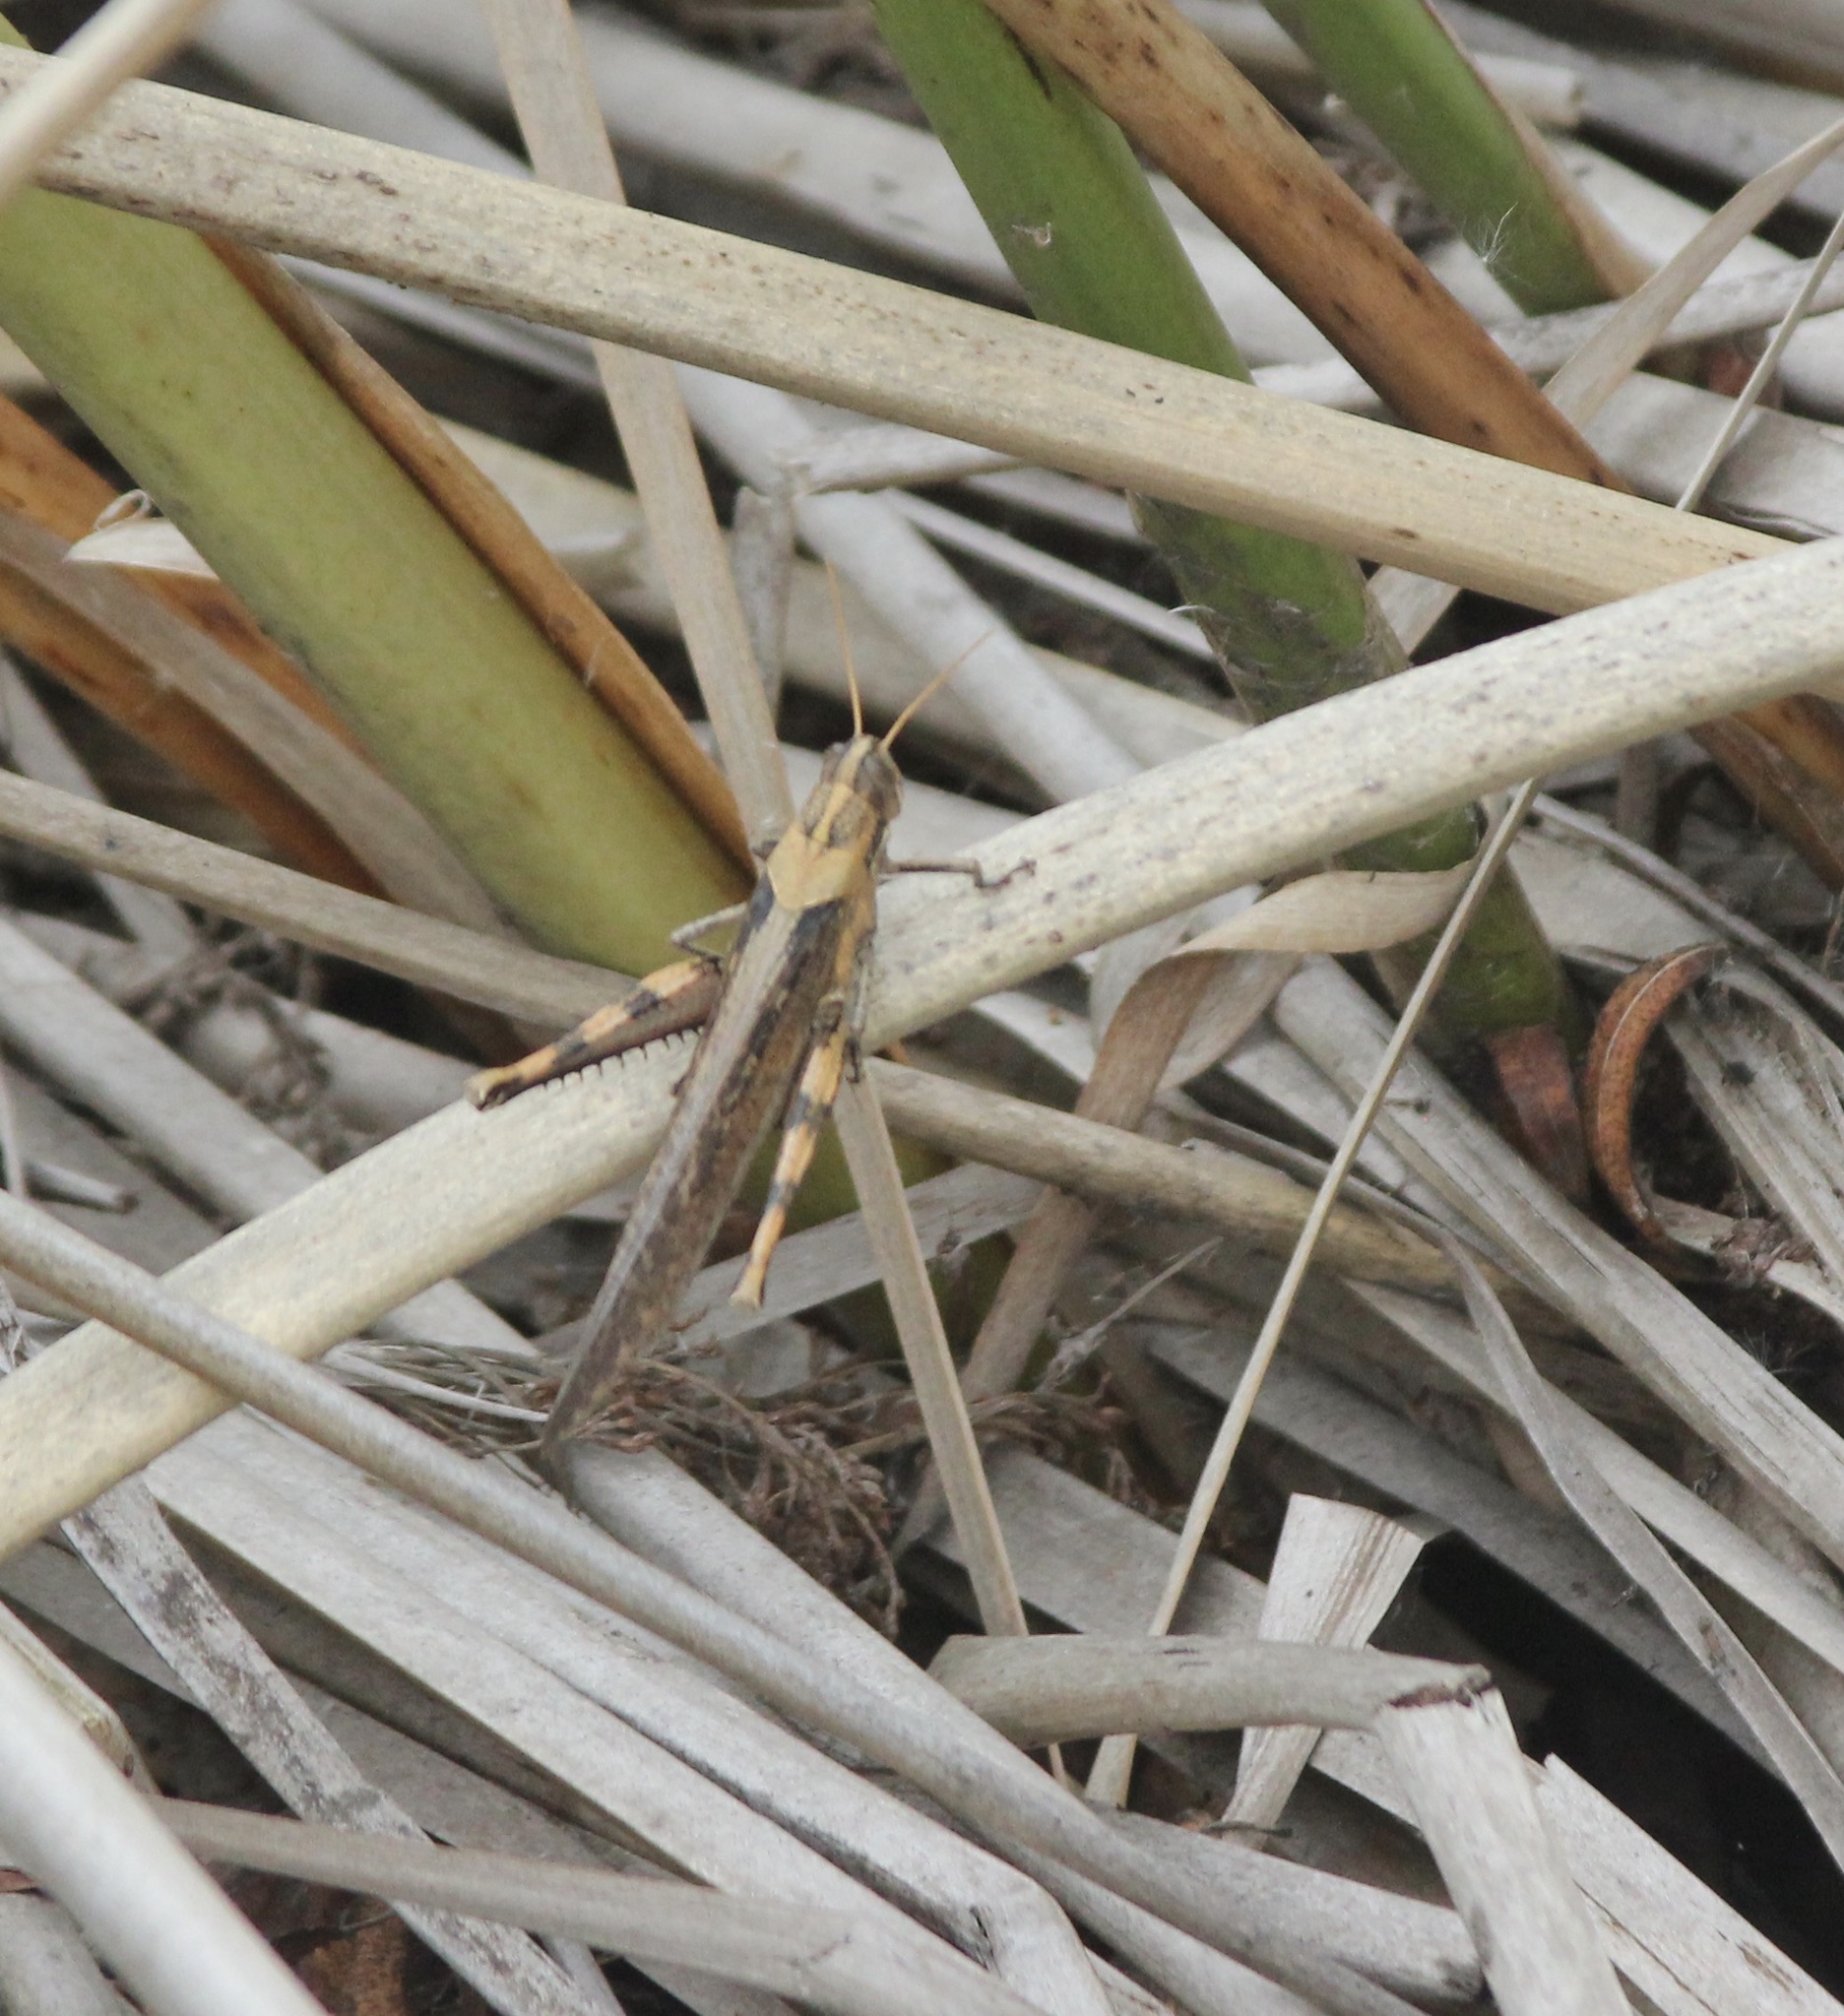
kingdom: Animalia
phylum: Arthropoda
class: Insecta
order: Orthoptera
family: Acrididae
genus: Schistocerca
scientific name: Schistocerca nitens
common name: Vagrant grasshopper
